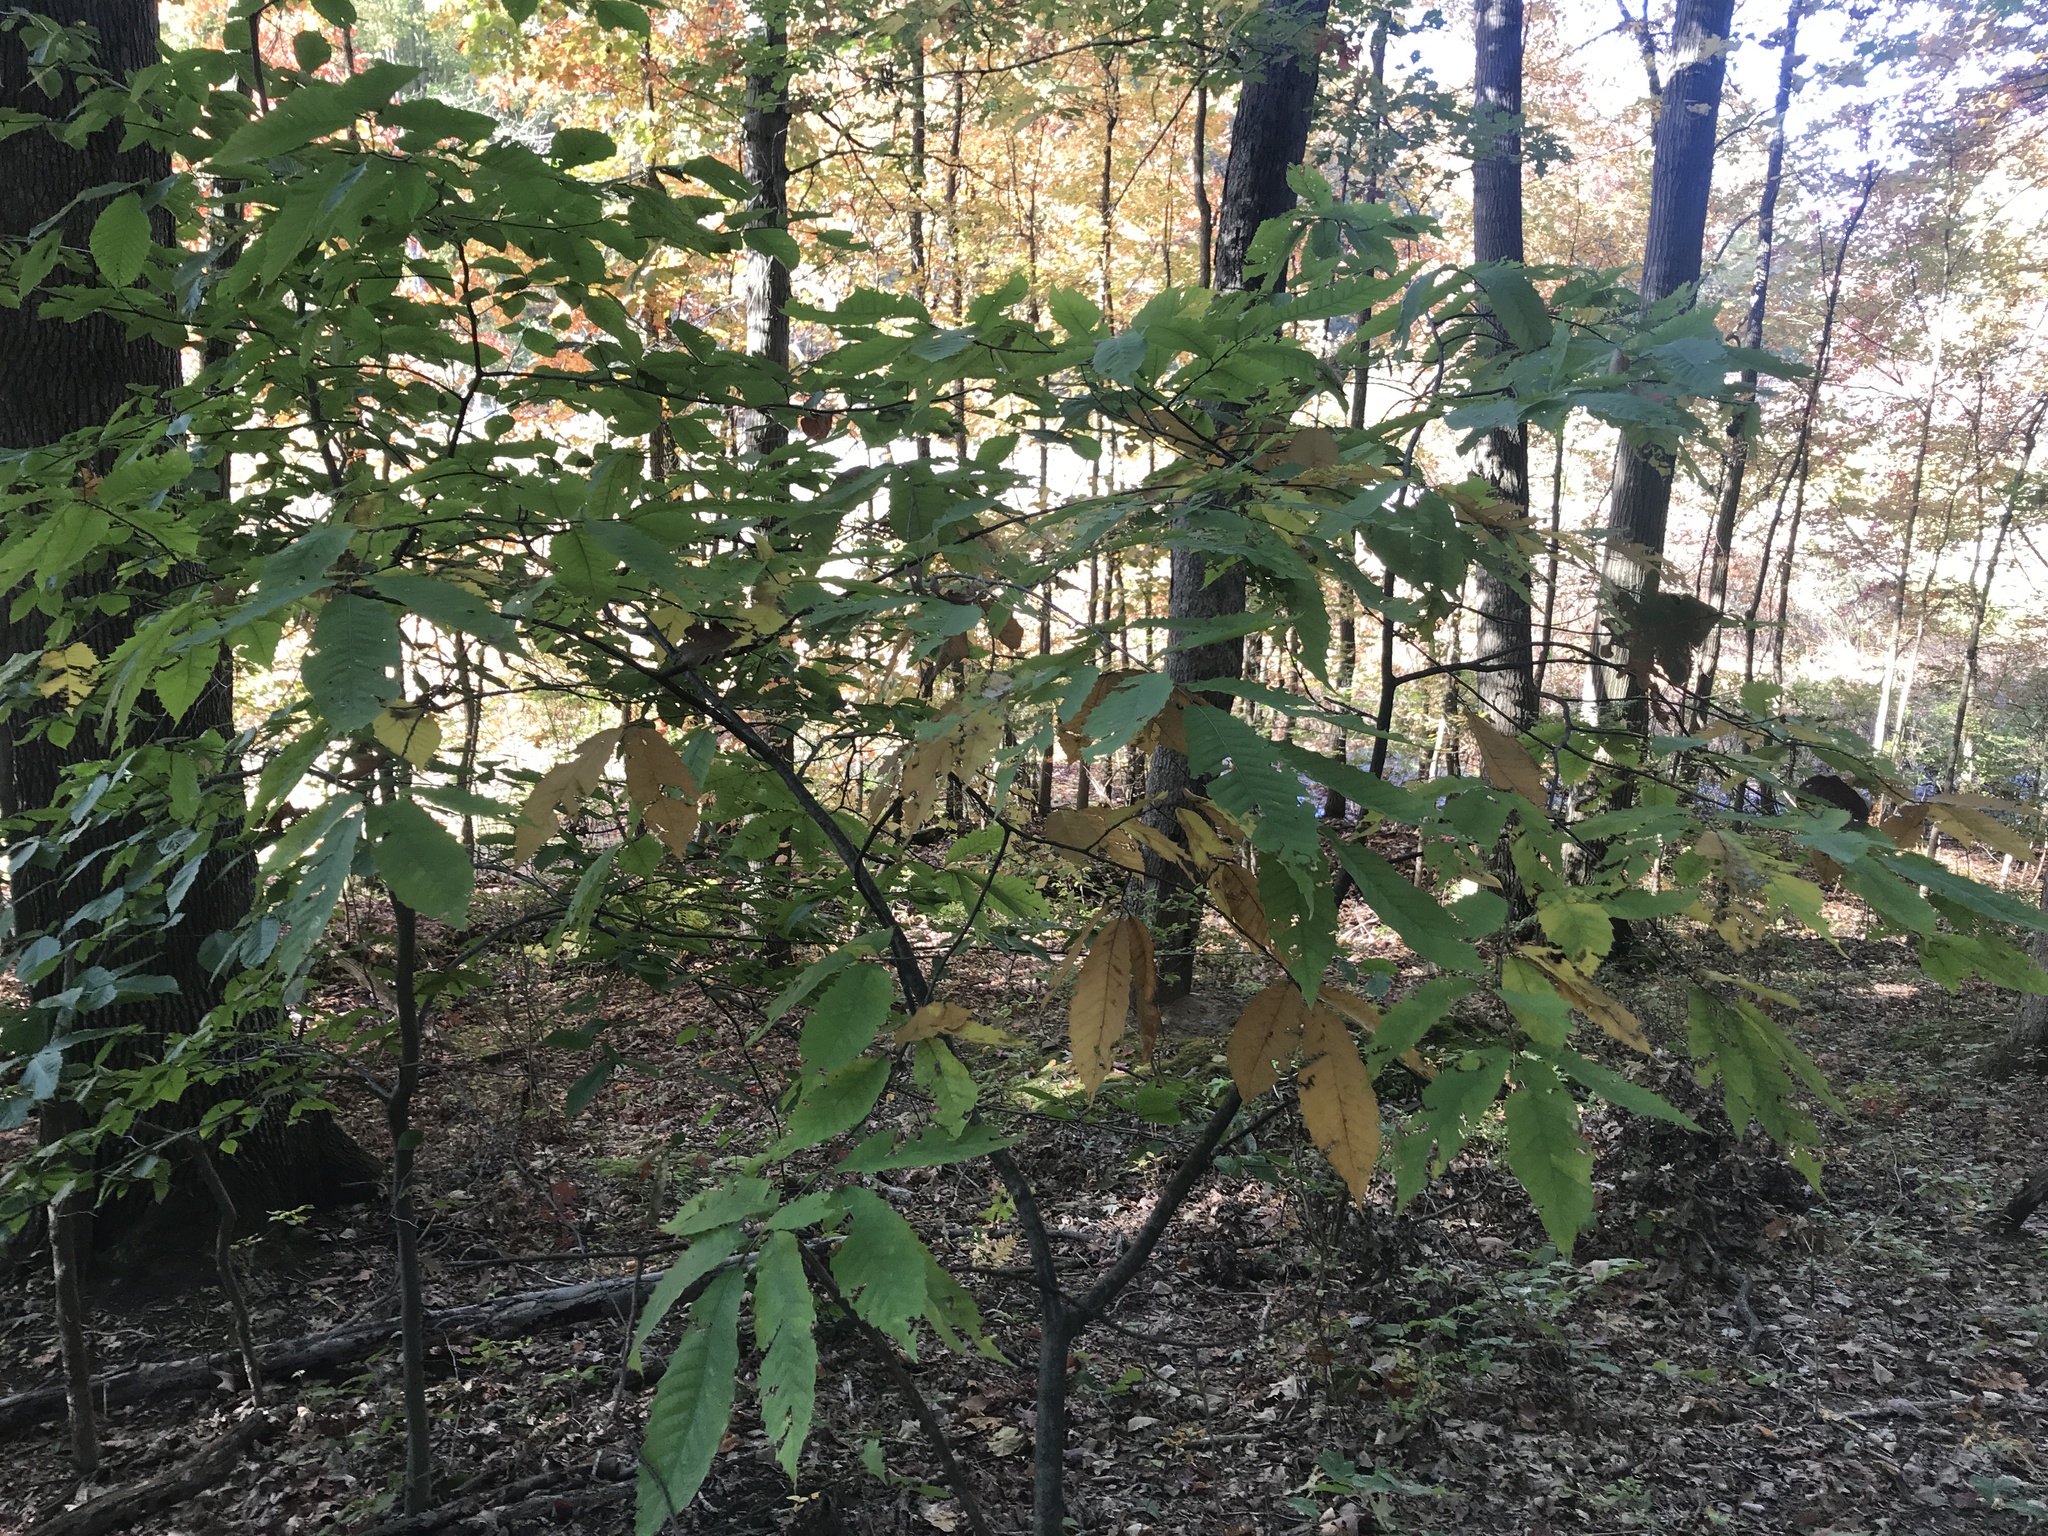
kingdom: Plantae
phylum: Tracheophyta
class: Magnoliopsida
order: Fagales
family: Fagaceae
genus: Castanea
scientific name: Castanea dentata
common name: American chestnut
